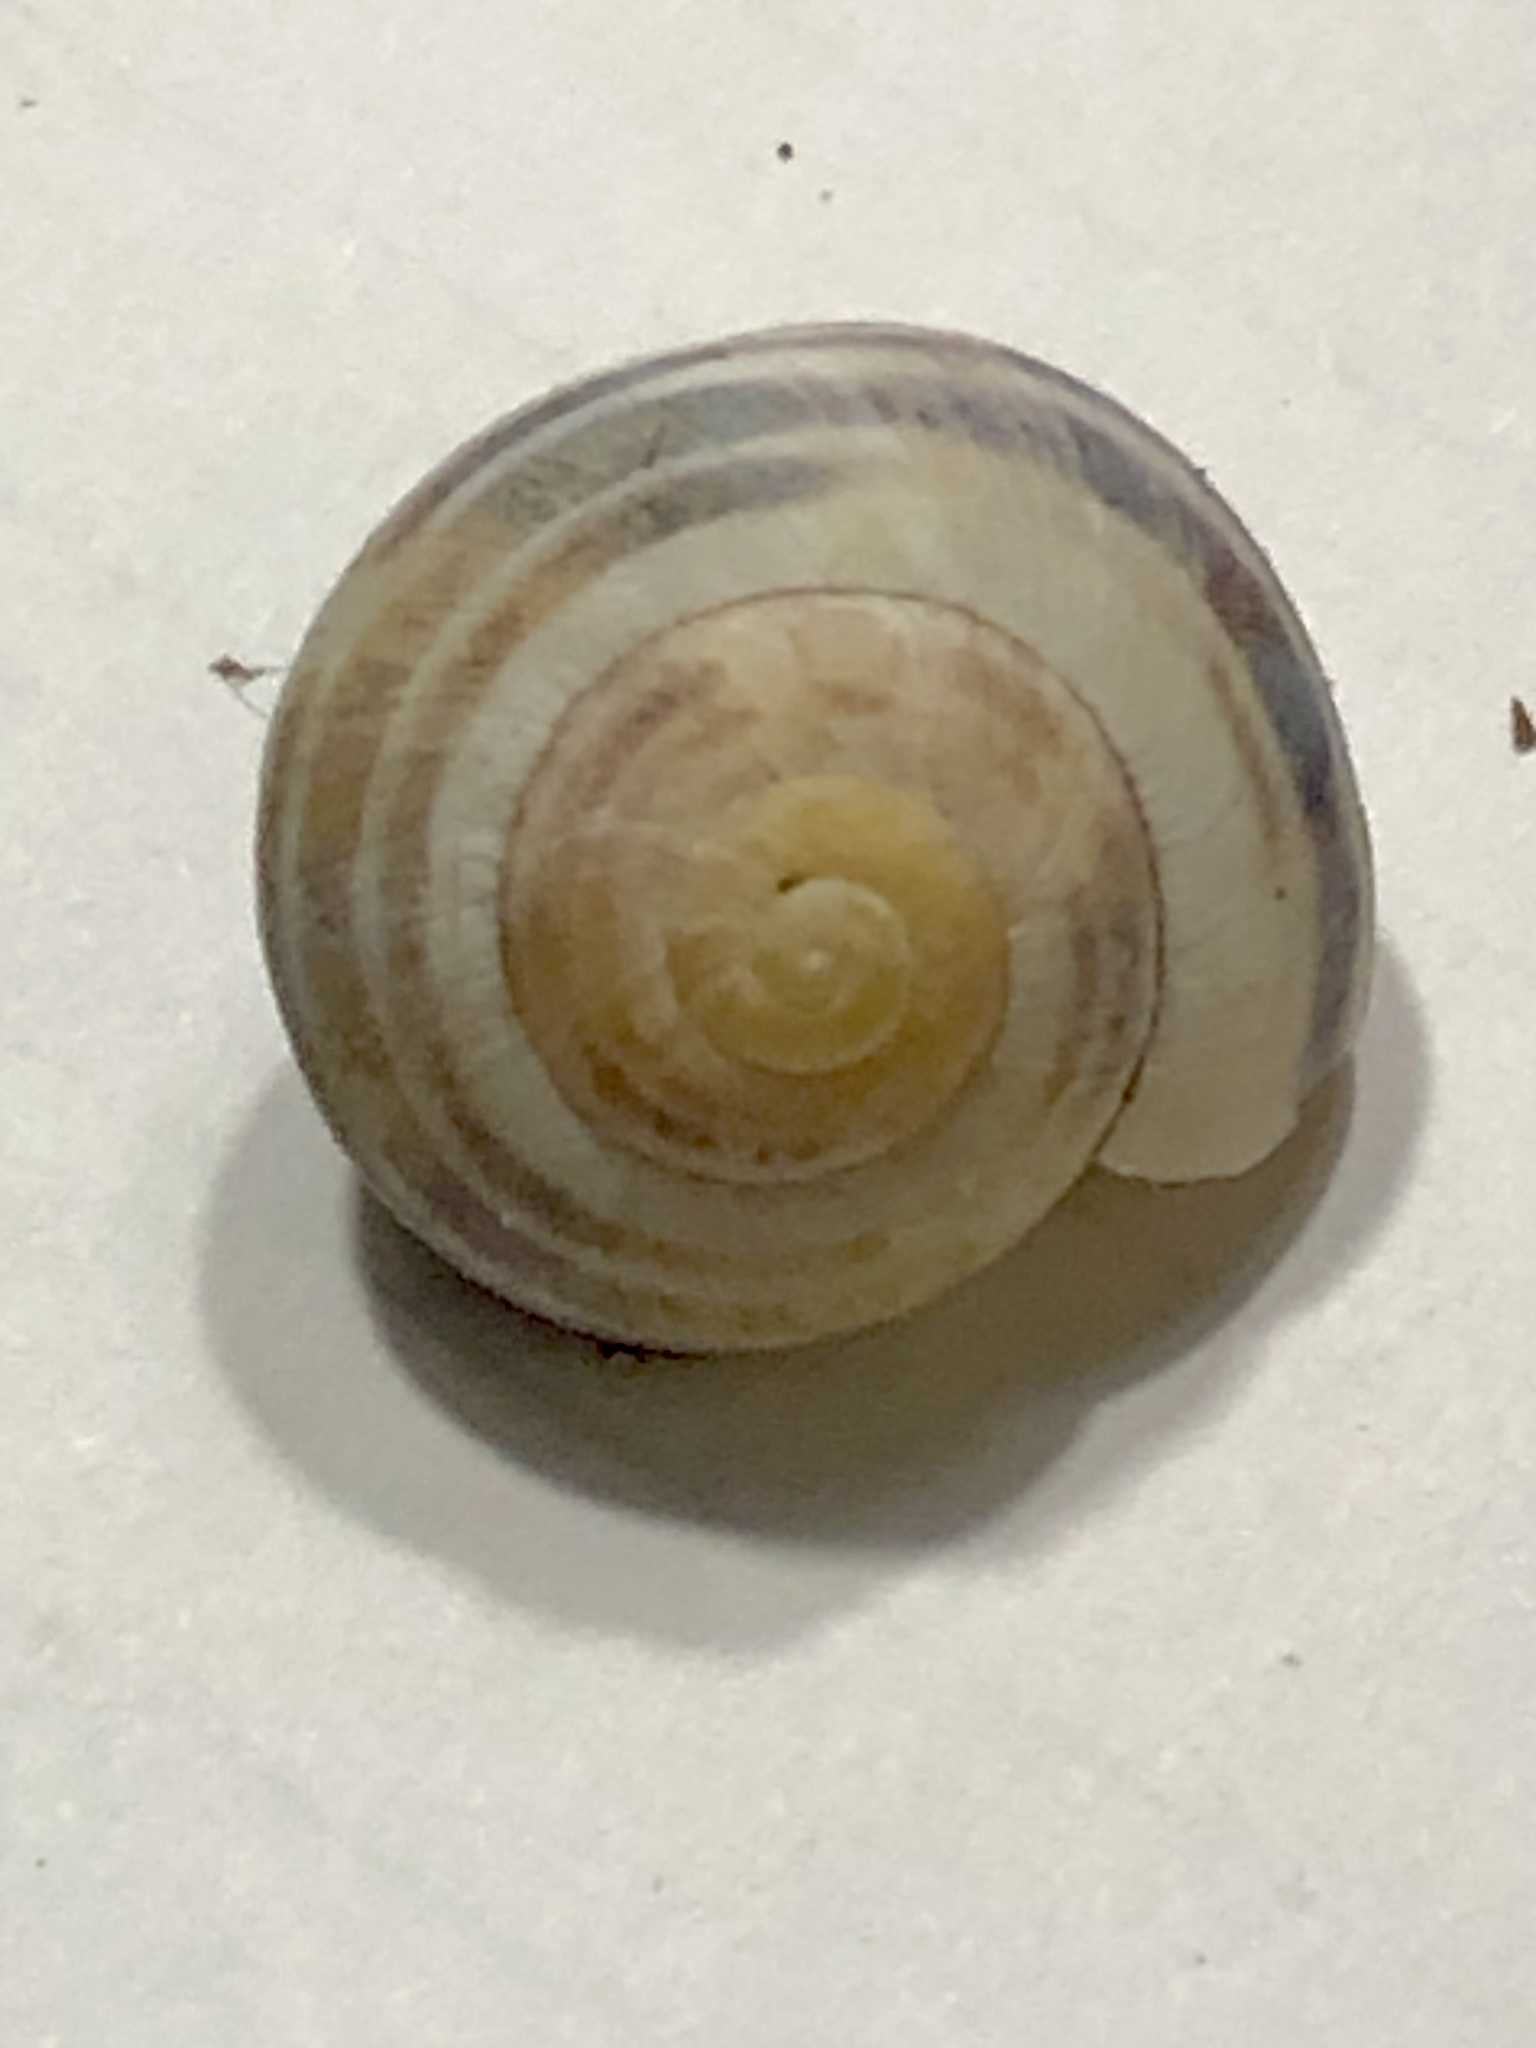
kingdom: Animalia
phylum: Mollusca
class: Gastropoda
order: Stylommatophora
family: Helicidae
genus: Cepaea
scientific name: Cepaea
